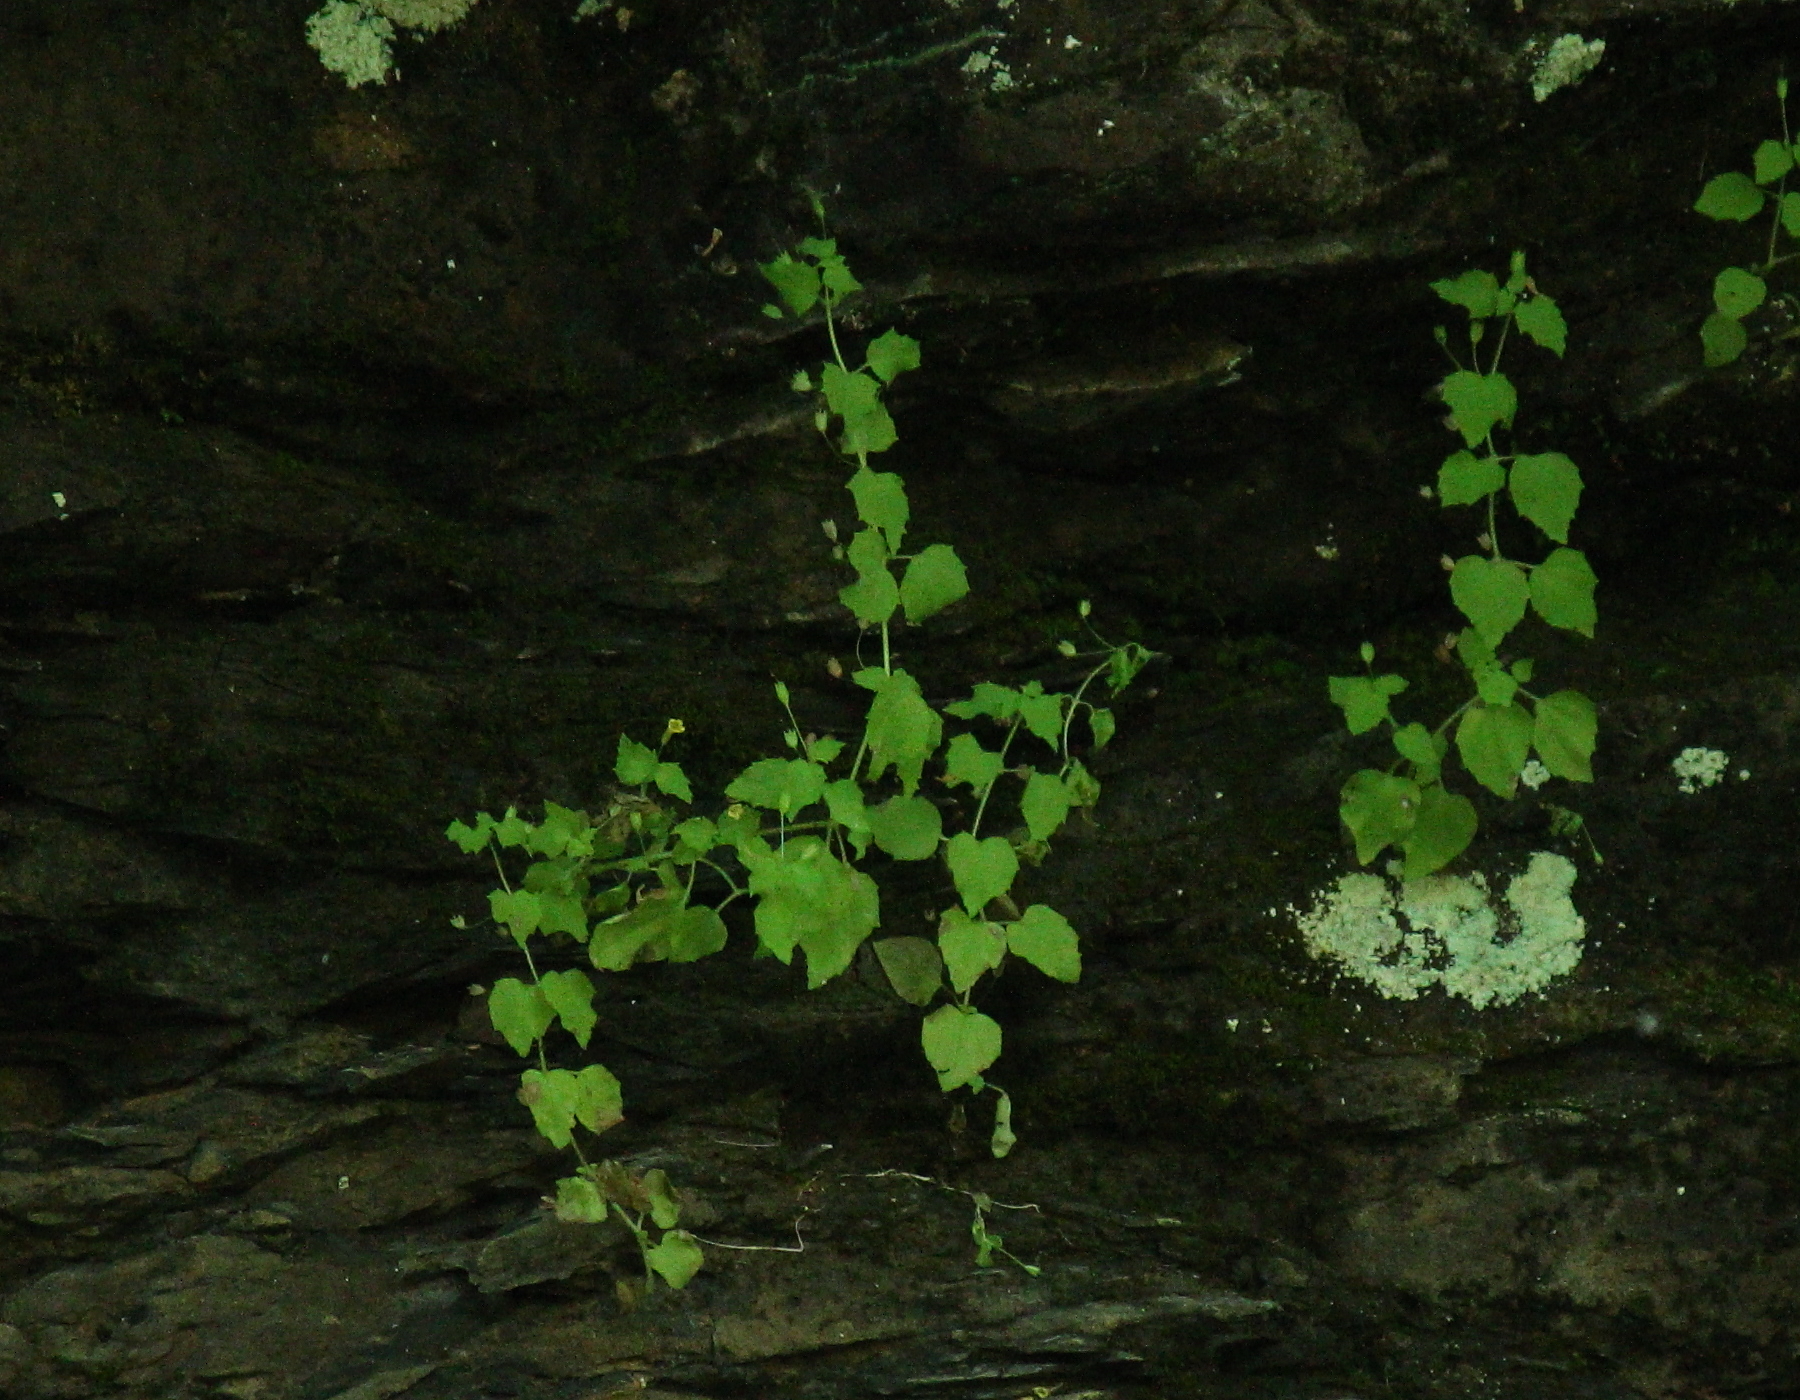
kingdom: Plantae
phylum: Tracheophyta
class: Magnoliopsida
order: Lamiales
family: Phrymaceae
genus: Erythranthe
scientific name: Erythranthe floribunda
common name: Floriferous monkeyflower
